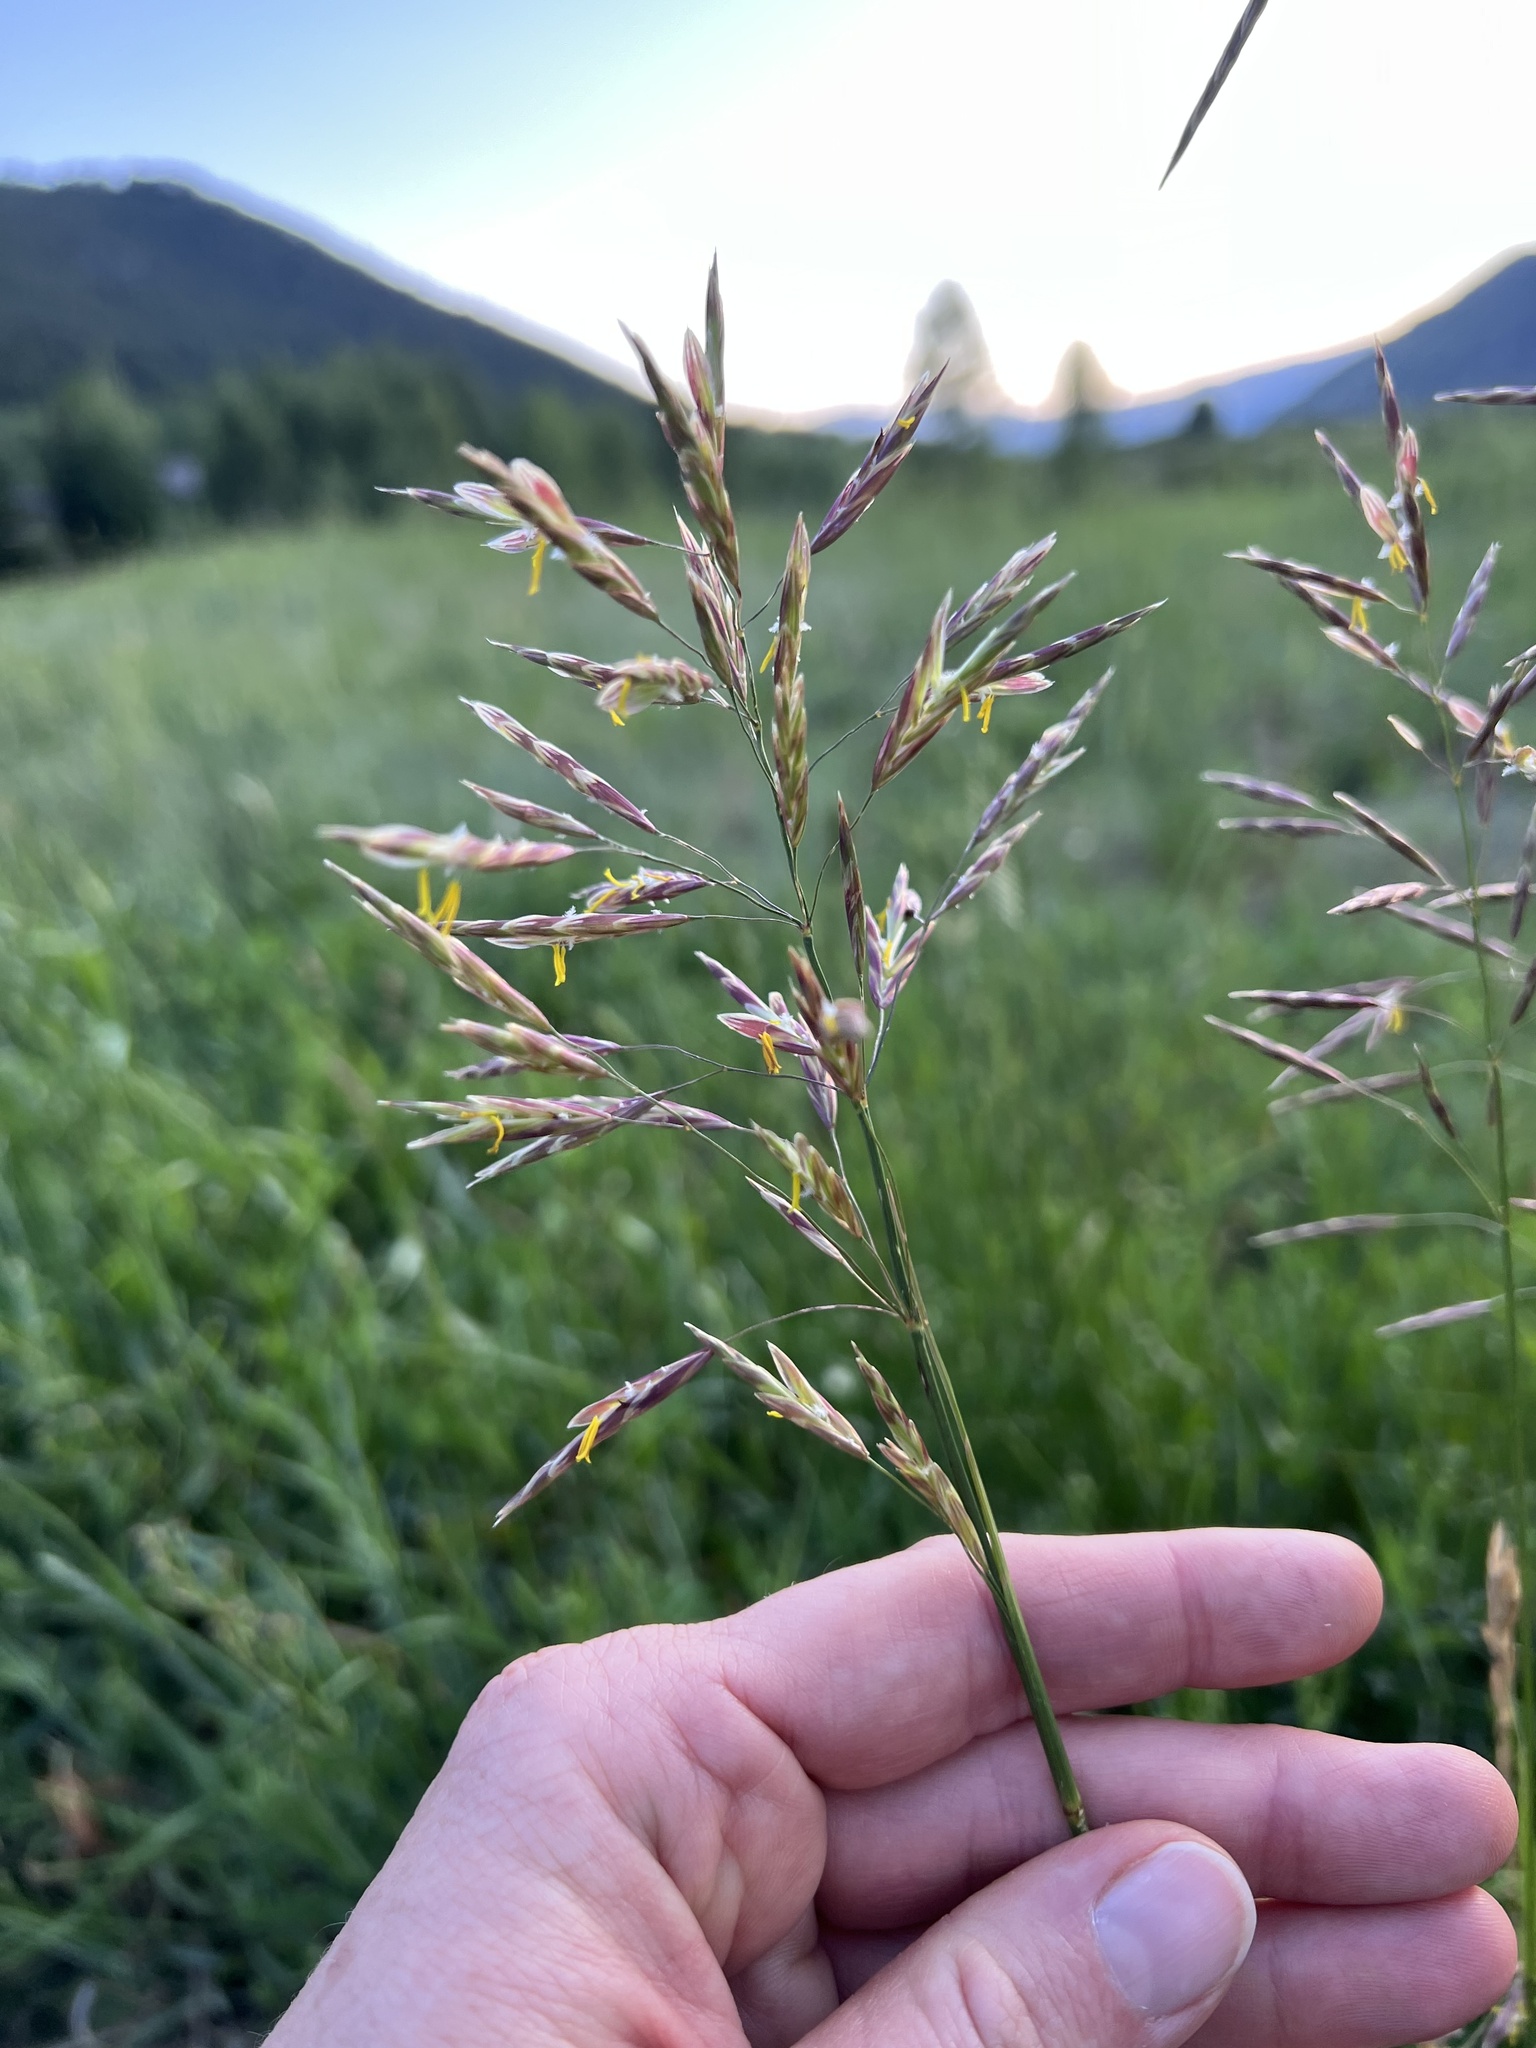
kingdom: Plantae
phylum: Tracheophyta
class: Liliopsida
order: Poales
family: Poaceae
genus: Bromus
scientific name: Bromus inermis
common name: Smooth brome
